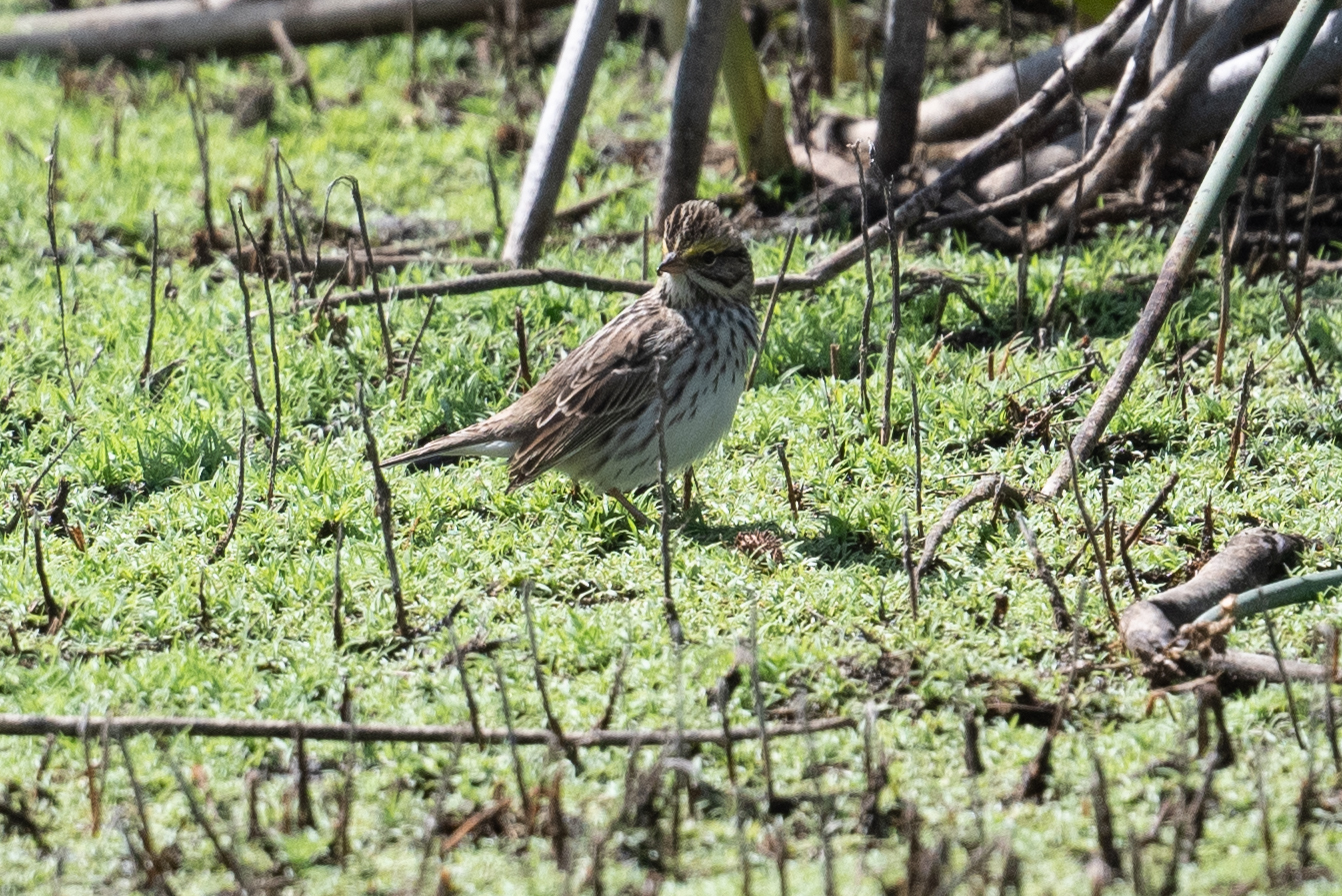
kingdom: Animalia
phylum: Chordata
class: Aves
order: Passeriformes
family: Passerellidae
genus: Passerculus
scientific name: Passerculus sandwichensis
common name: Savannah sparrow
